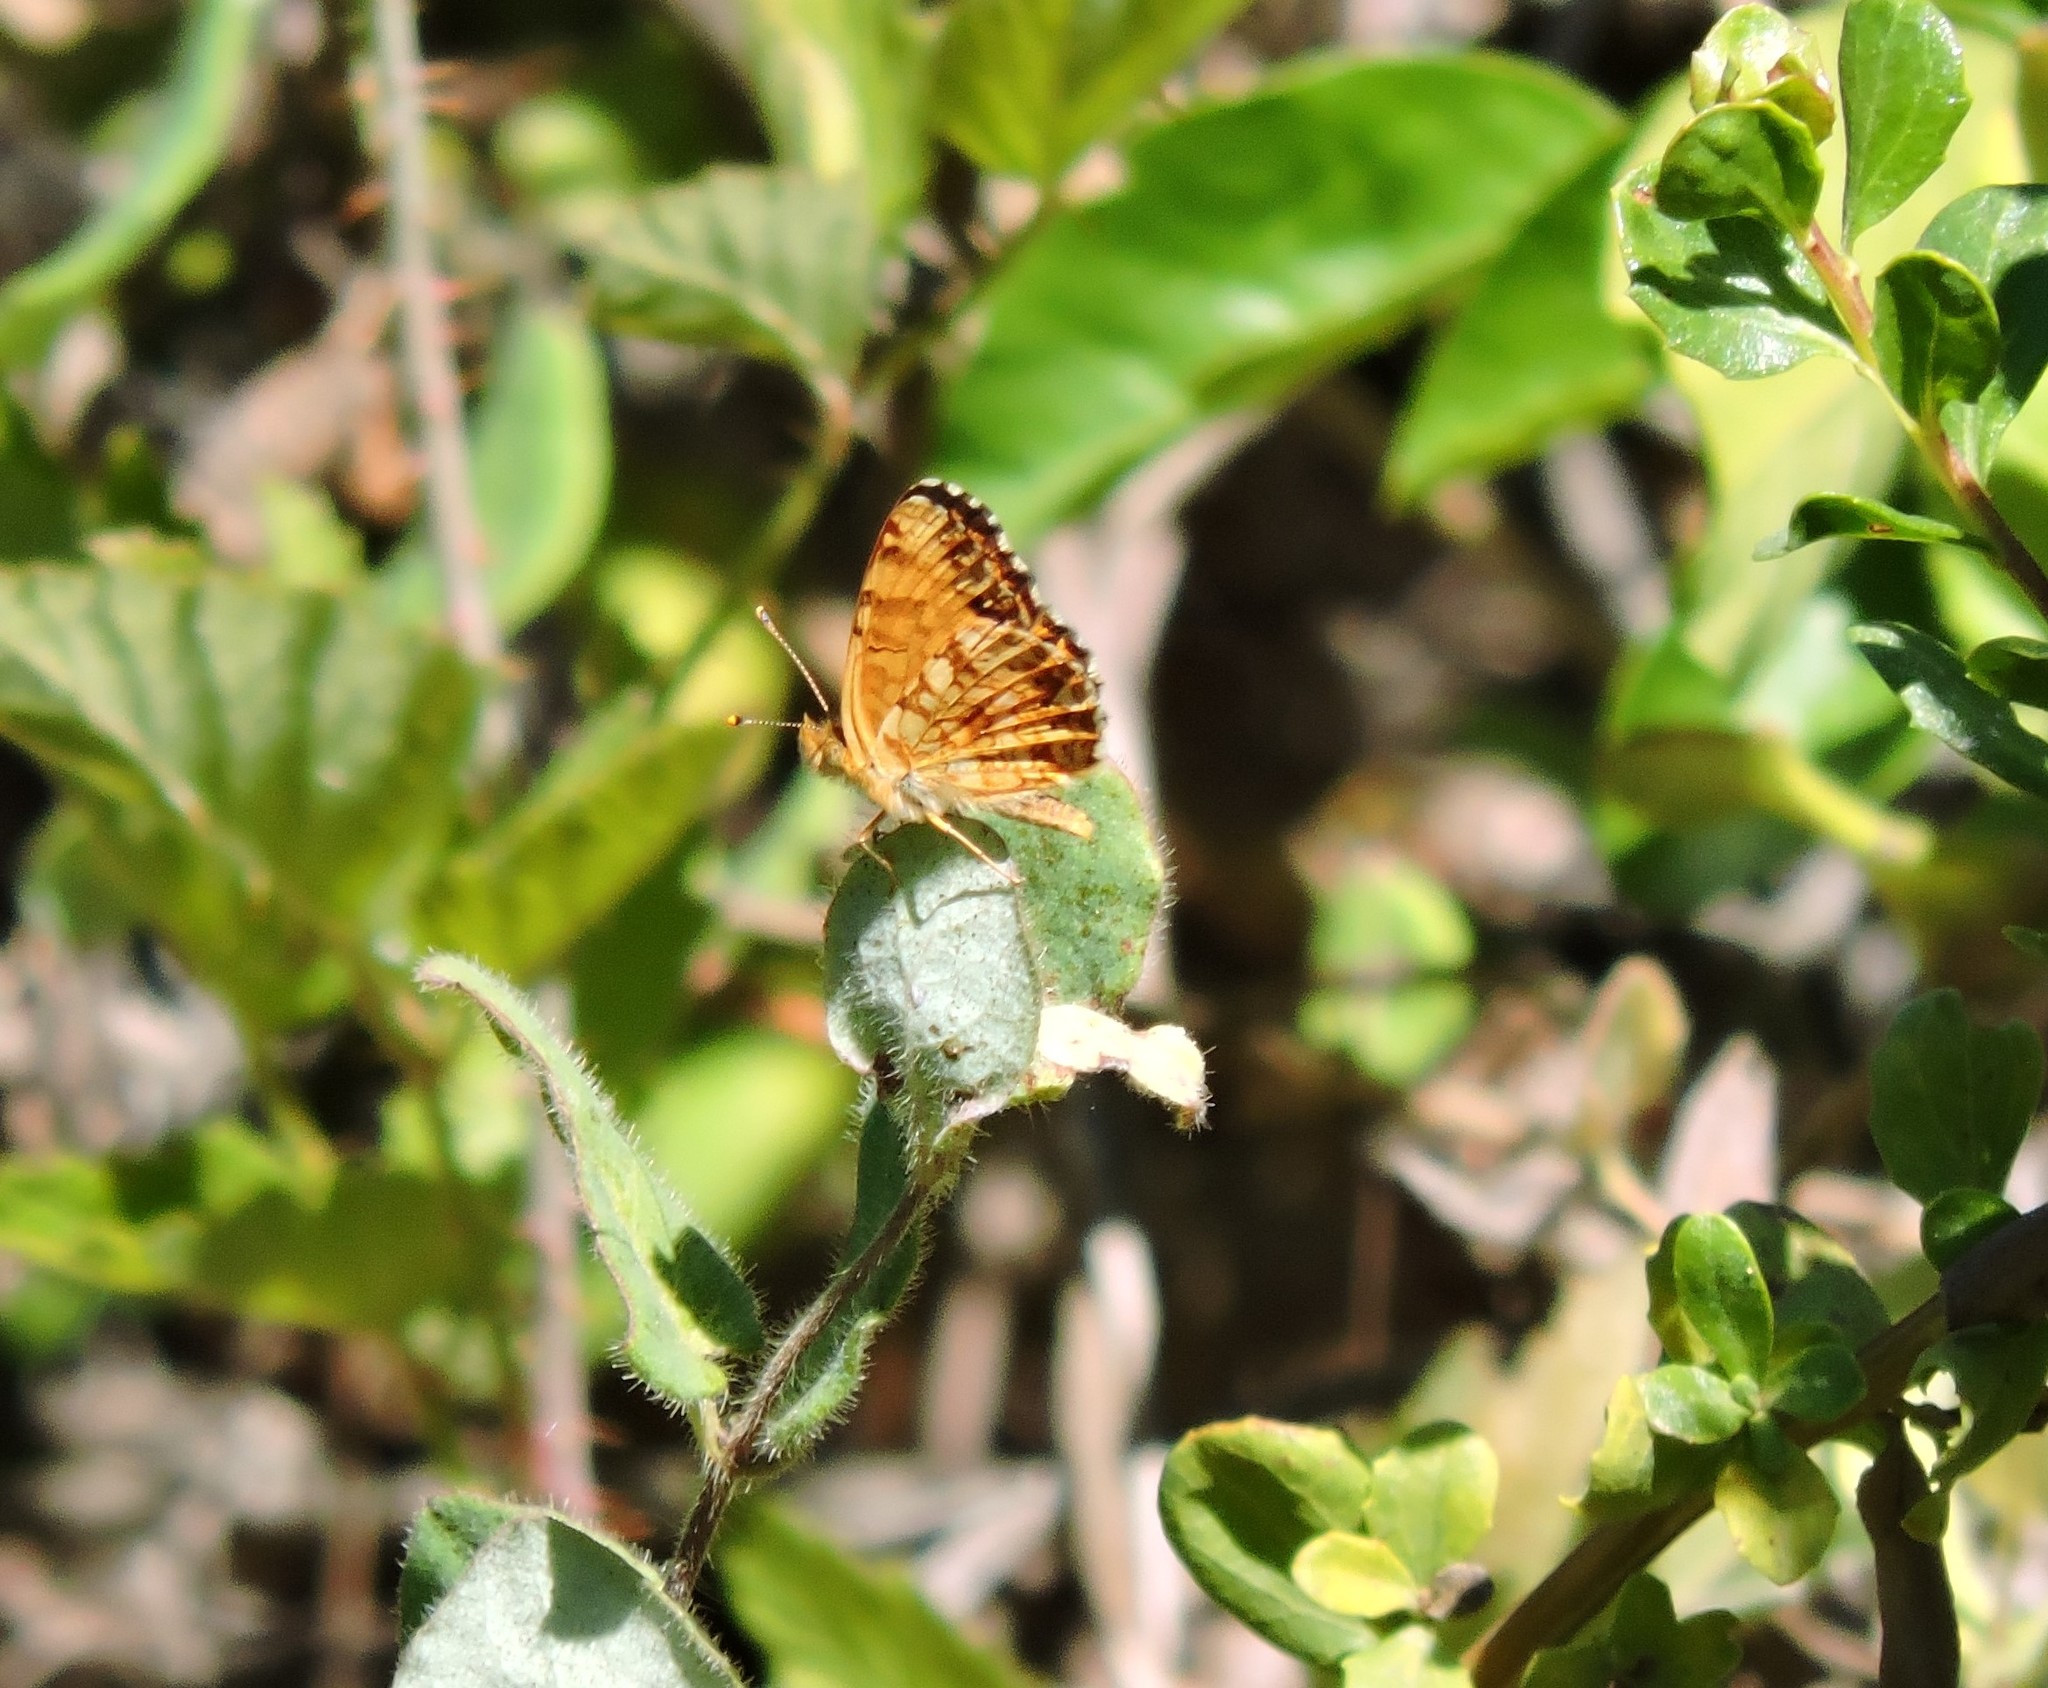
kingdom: Animalia
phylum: Arthropoda
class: Insecta
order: Lepidoptera
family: Nymphalidae
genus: Eresia
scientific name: Eresia aveyrona
